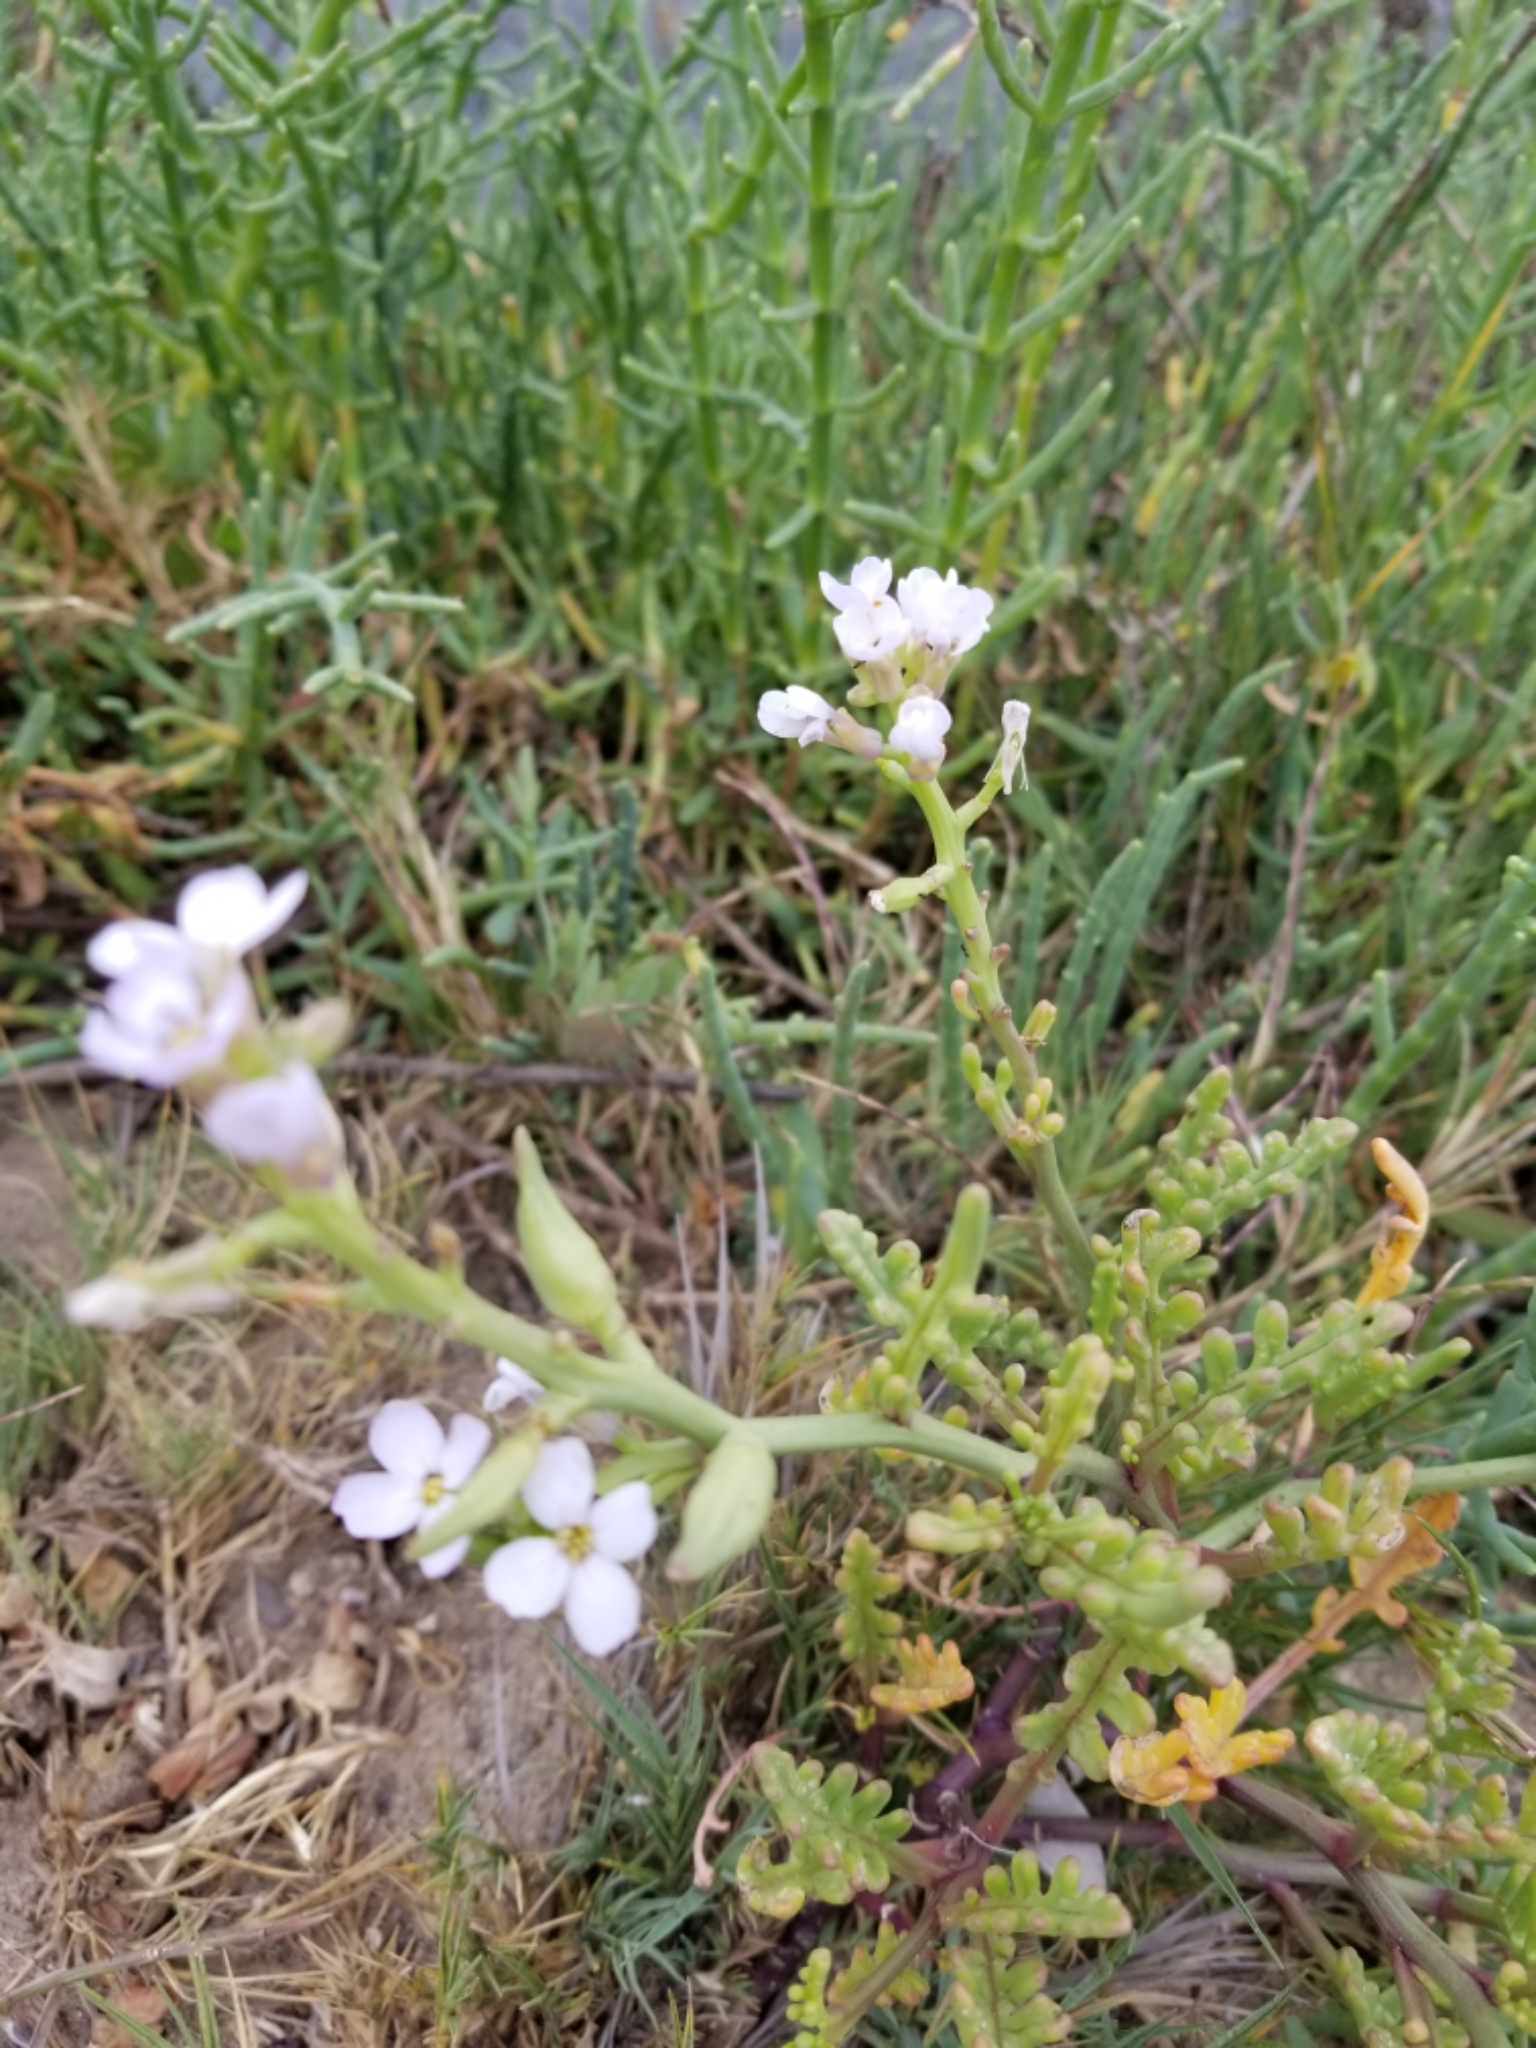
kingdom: Plantae
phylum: Tracheophyta
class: Magnoliopsida
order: Brassicales
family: Brassicaceae
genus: Cakile
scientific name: Cakile maritima
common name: Sea rocket
